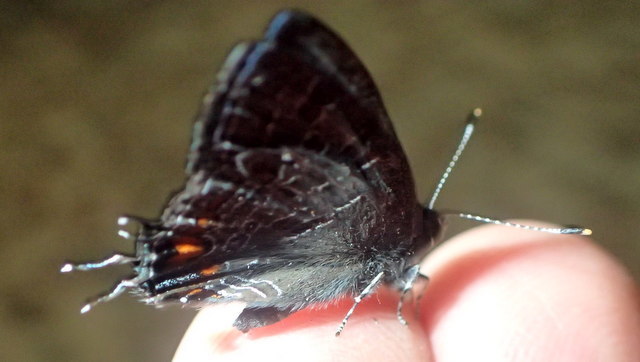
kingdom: Animalia
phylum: Arthropoda
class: Insecta
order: Lepidoptera
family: Lycaenidae
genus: Satyrium
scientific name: Satyrium liparops
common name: Striped hairstreak
